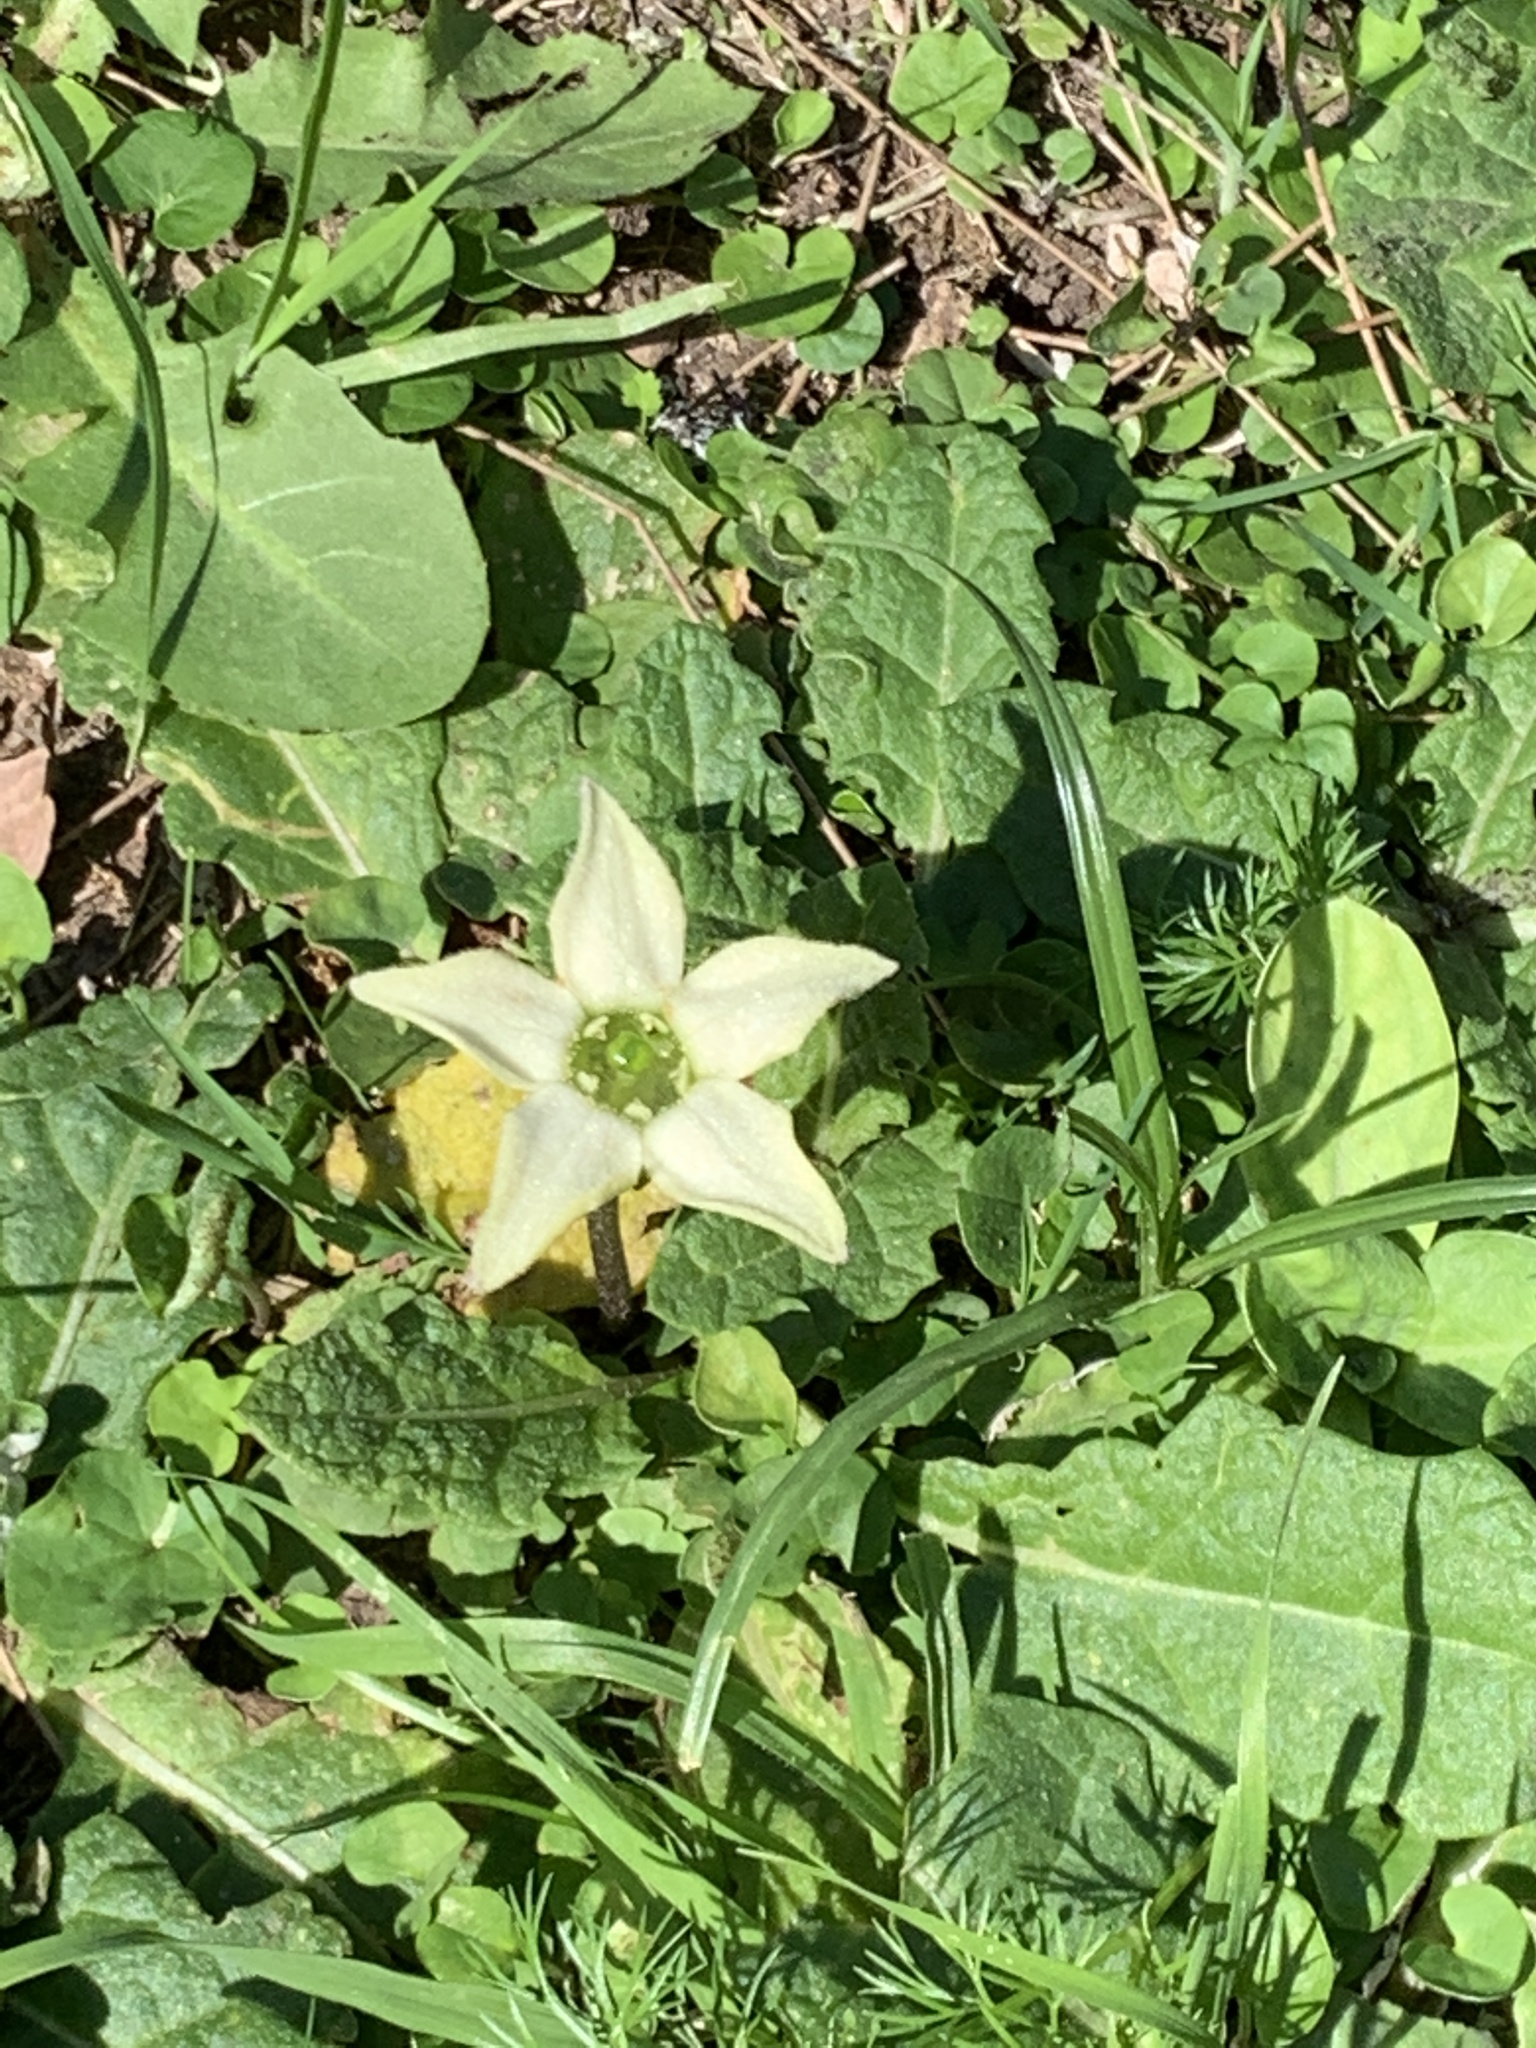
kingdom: Plantae
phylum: Tracheophyta
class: Magnoliopsida
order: Solanales
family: Solanaceae
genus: Jaborosa
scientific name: Jaborosa runcinata
